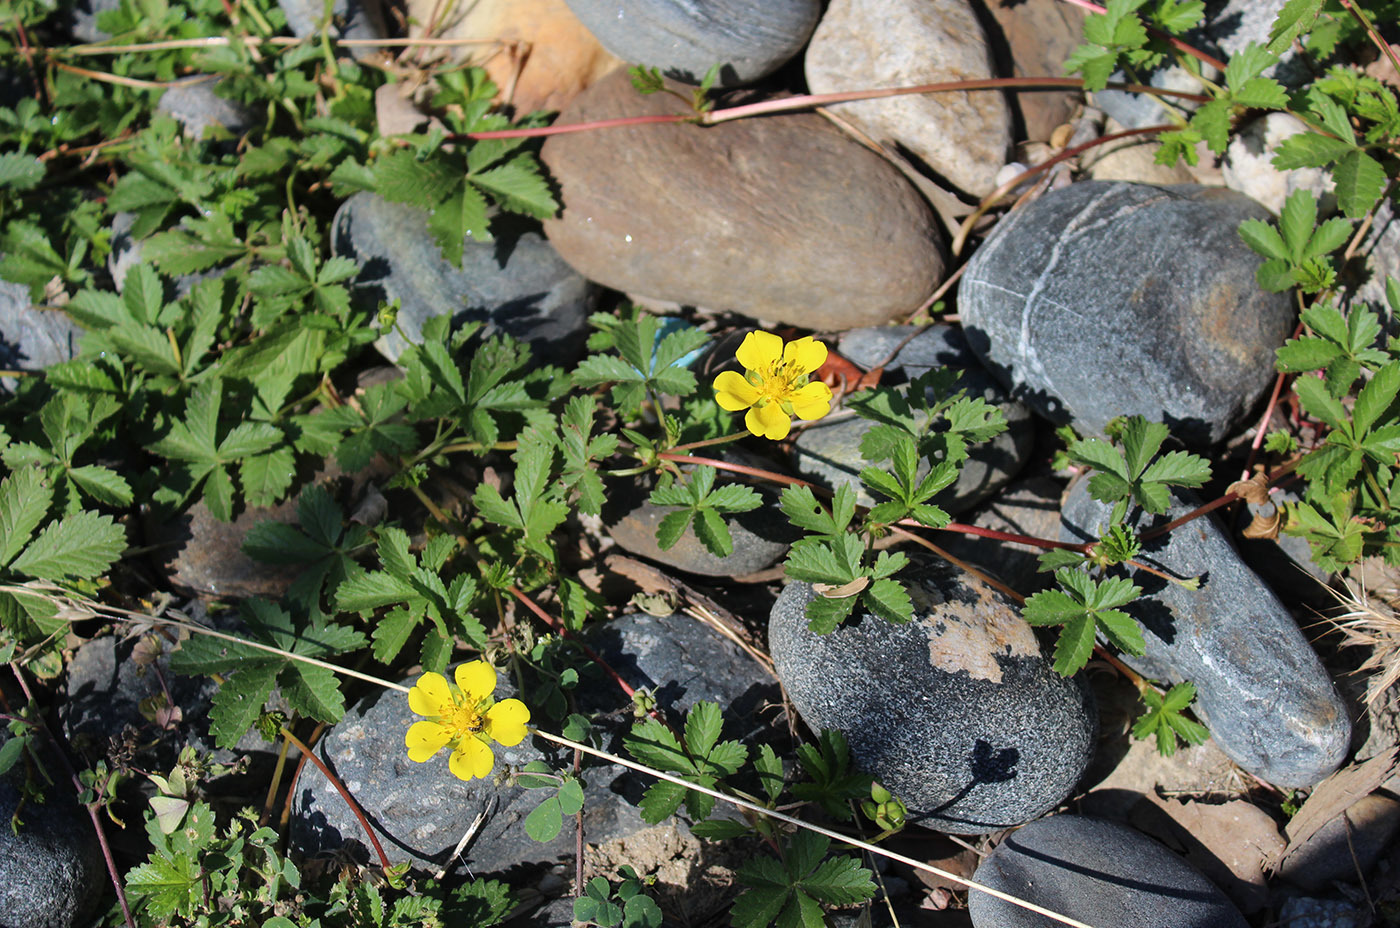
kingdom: Plantae
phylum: Tracheophyta
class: Magnoliopsida
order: Rosales
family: Rosaceae
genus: Potentilla
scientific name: Potentilla reptans
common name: Creeping cinquefoil
